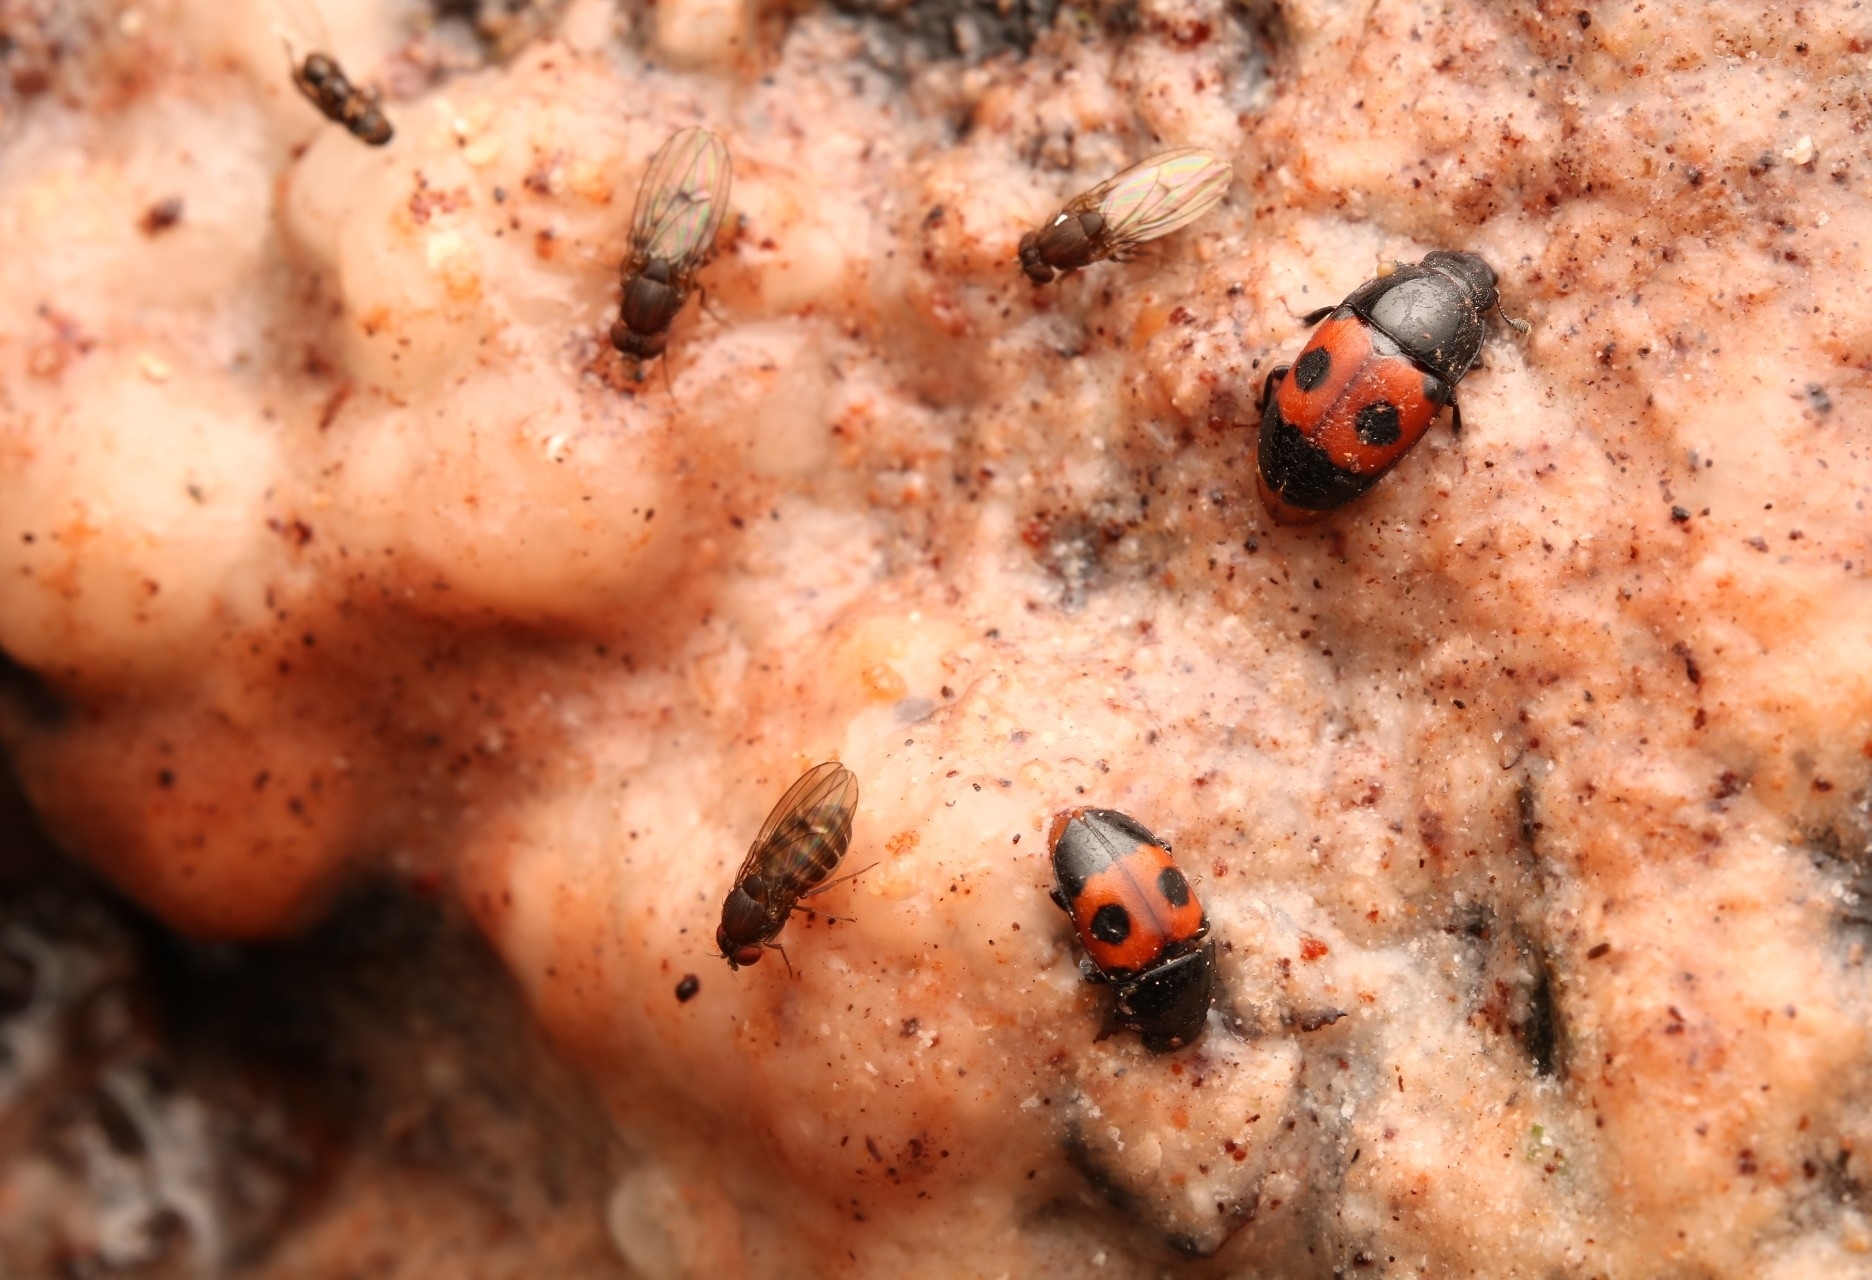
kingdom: Animalia
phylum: Arthropoda
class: Insecta
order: Coleoptera
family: Nitidulidae
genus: Glischrochilus
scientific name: Glischrochilus sanguinolentus
